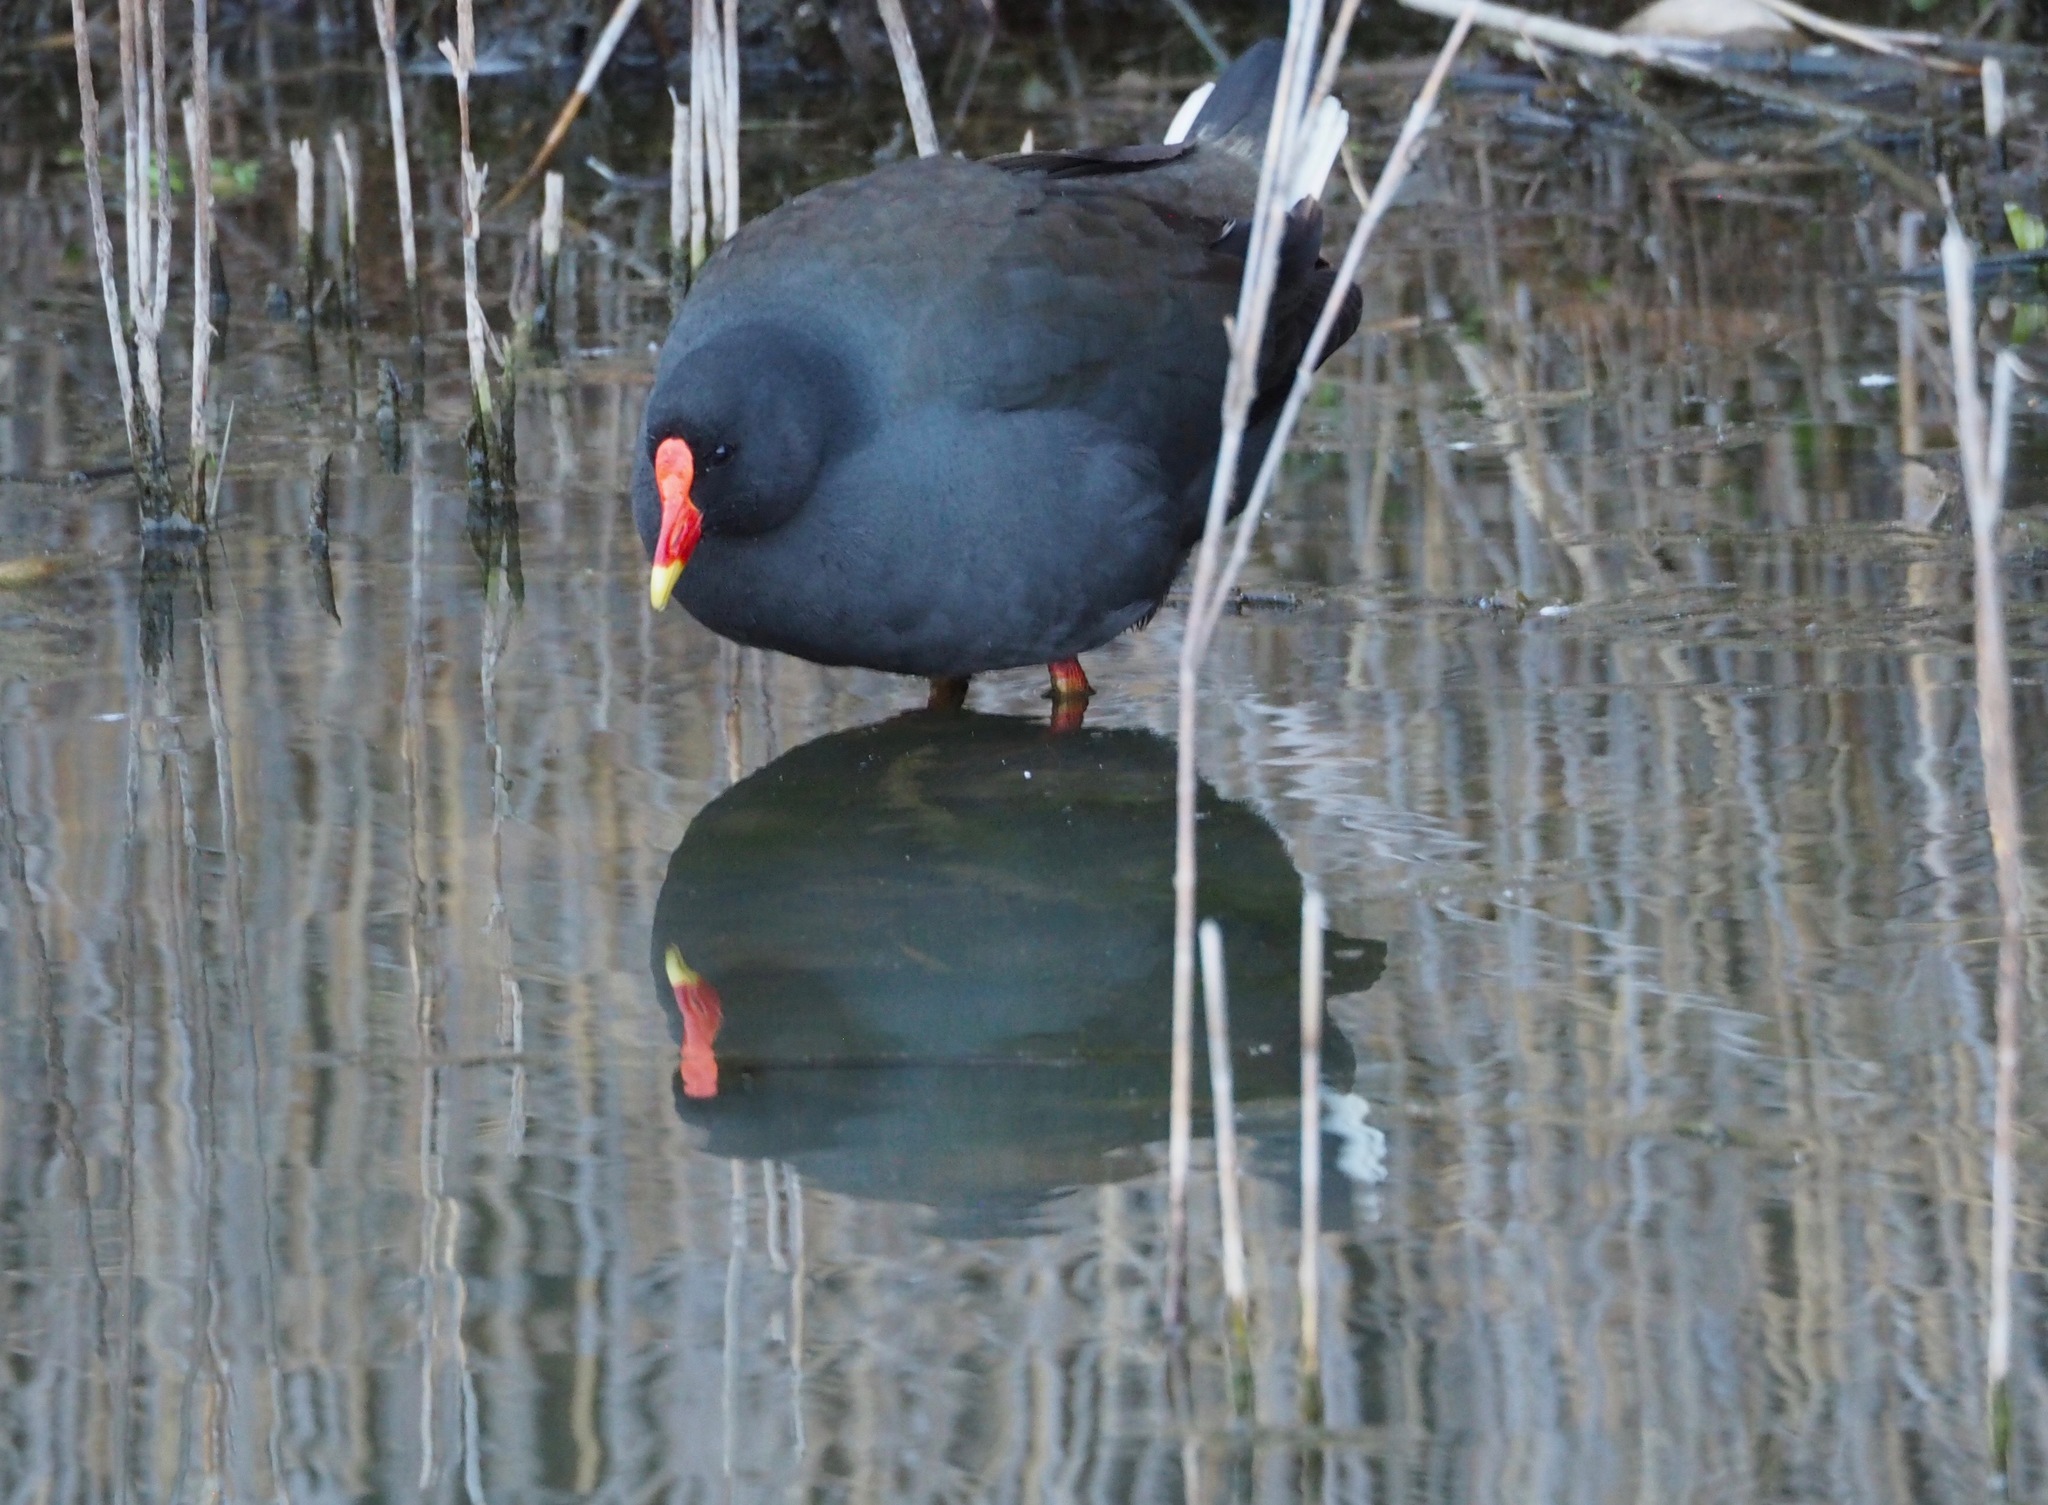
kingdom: Animalia
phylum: Chordata
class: Aves
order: Gruiformes
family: Rallidae
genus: Gallinula
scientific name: Gallinula tenebrosa
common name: Dusky moorhen
